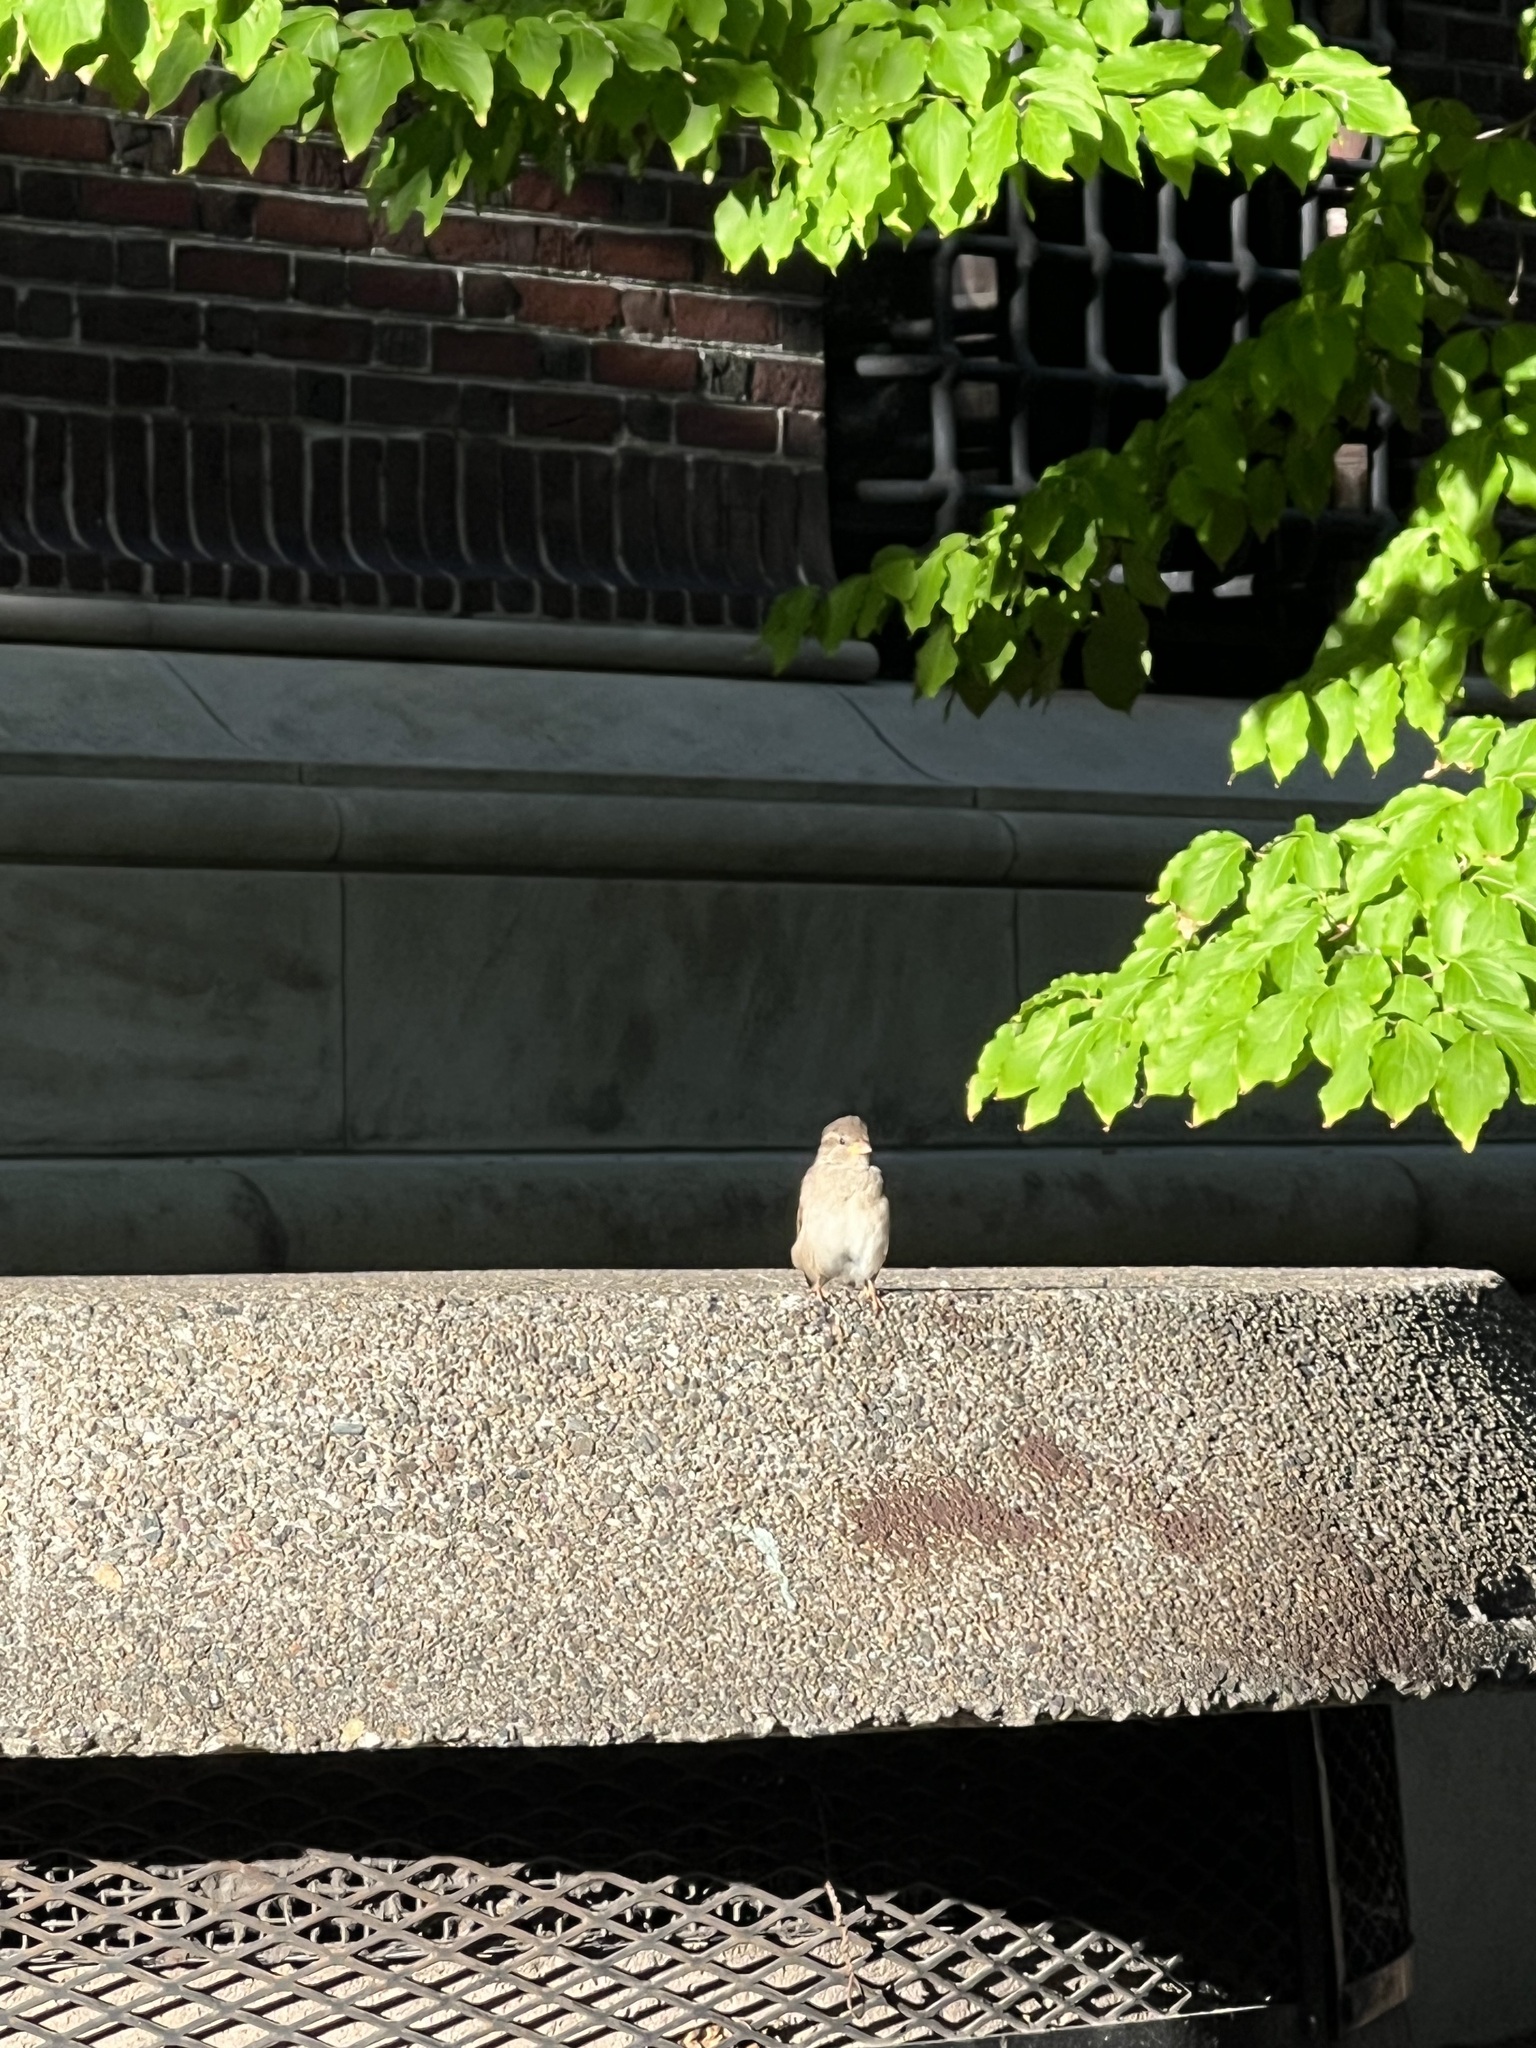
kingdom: Animalia
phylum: Chordata
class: Aves
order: Passeriformes
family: Passeridae
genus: Passer
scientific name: Passer domesticus
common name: House sparrow
